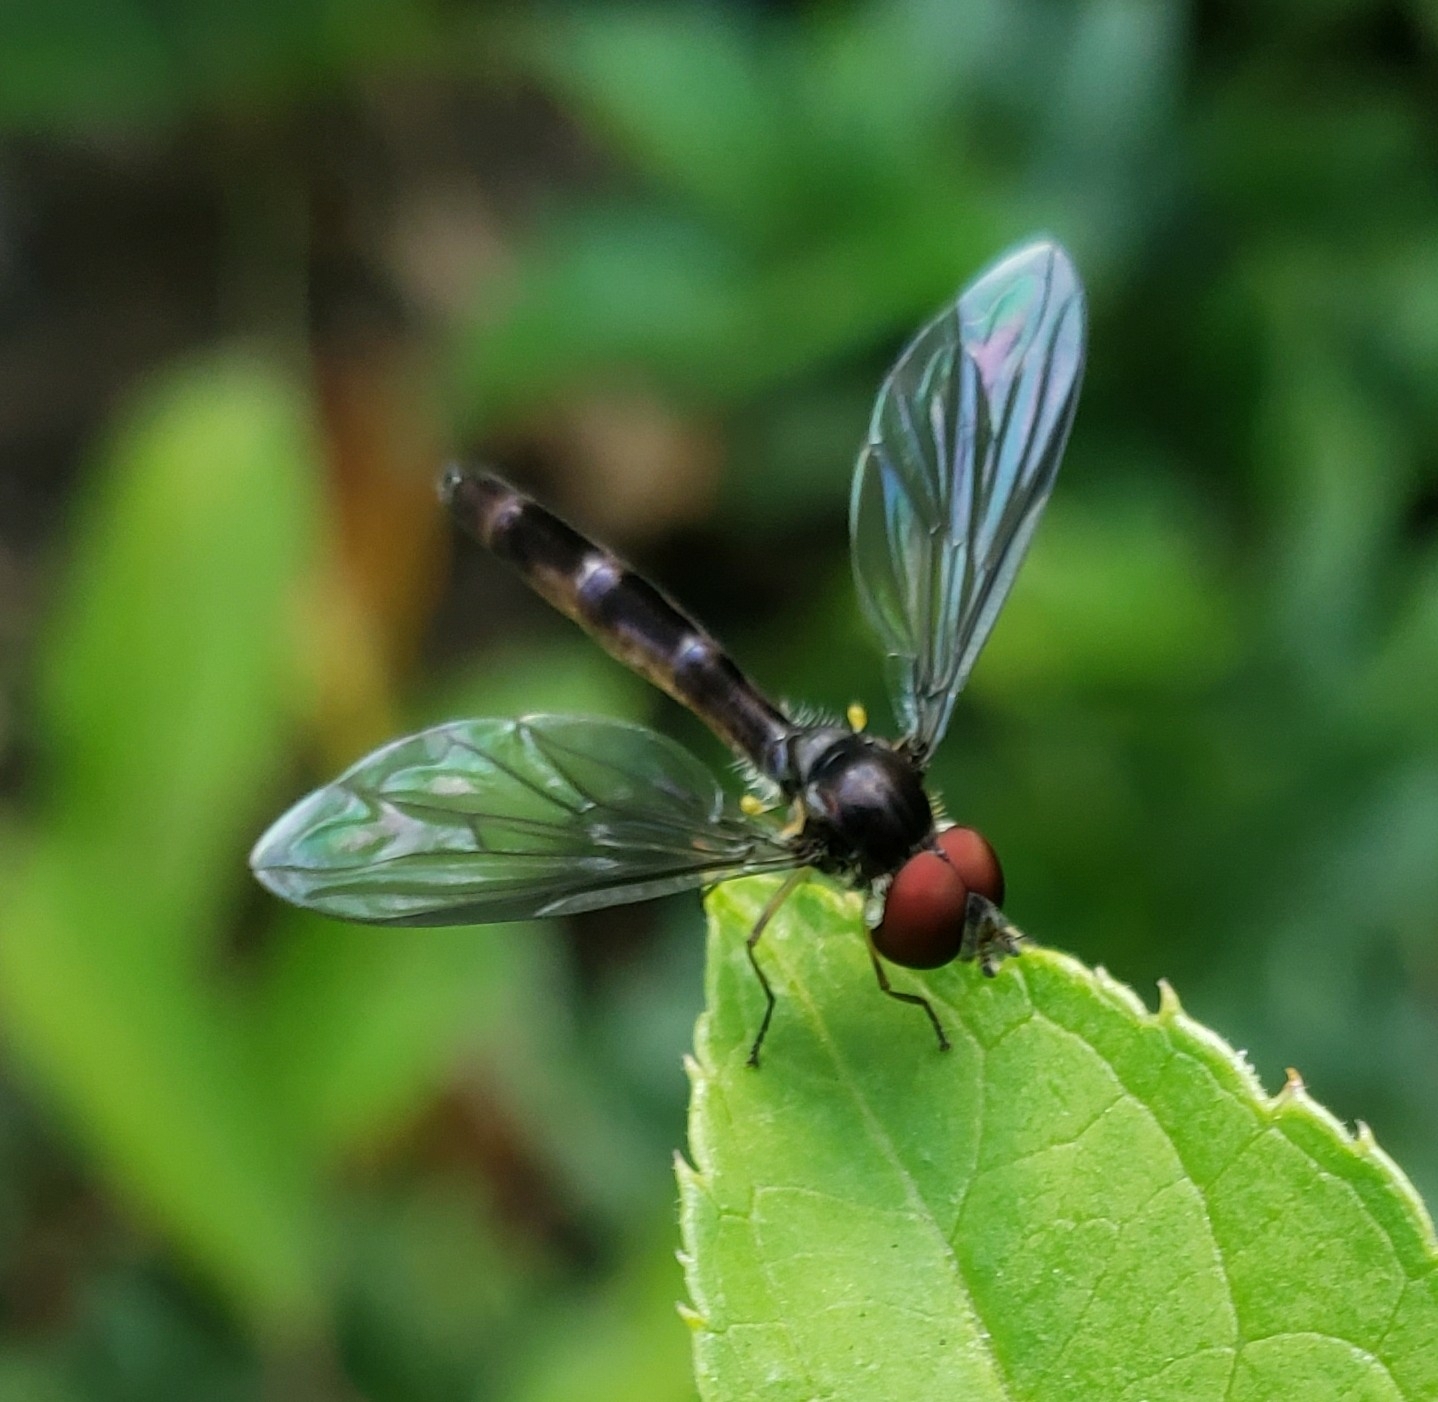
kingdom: Animalia
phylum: Arthropoda
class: Insecta
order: Diptera
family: Syrphidae
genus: Ocyptamus
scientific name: Ocyptamus fuscipennis
